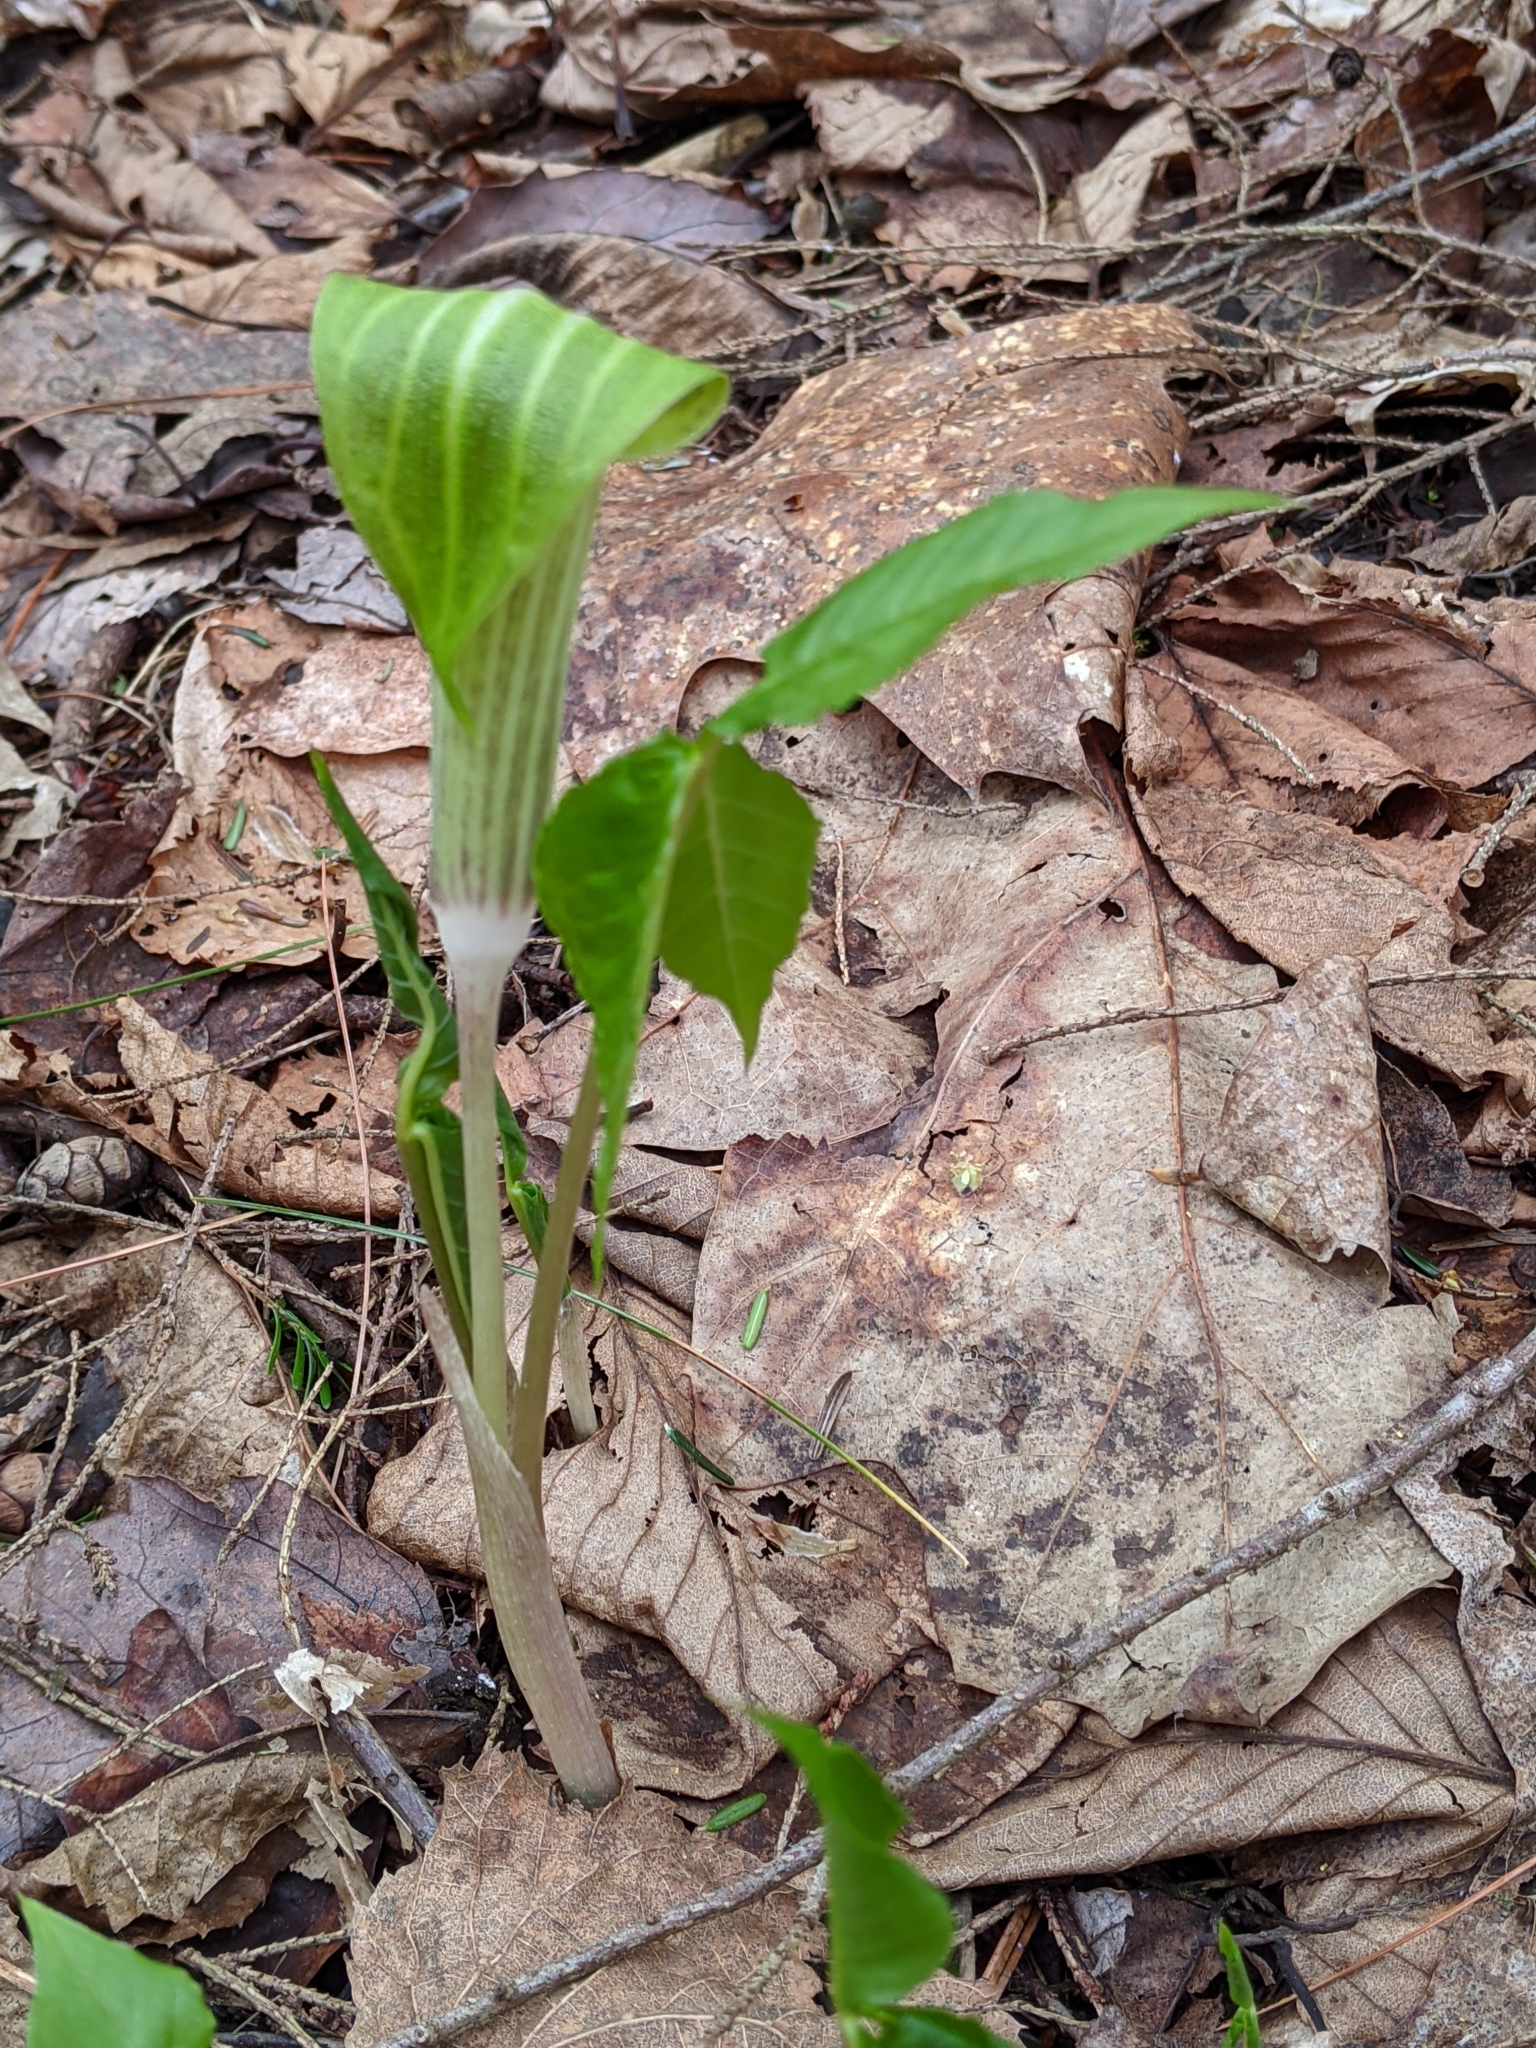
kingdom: Plantae
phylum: Tracheophyta
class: Liliopsida
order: Alismatales
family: Araceae
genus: Arisaema
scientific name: Arisaema triphyllum
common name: Jack-in-the-pulpit
